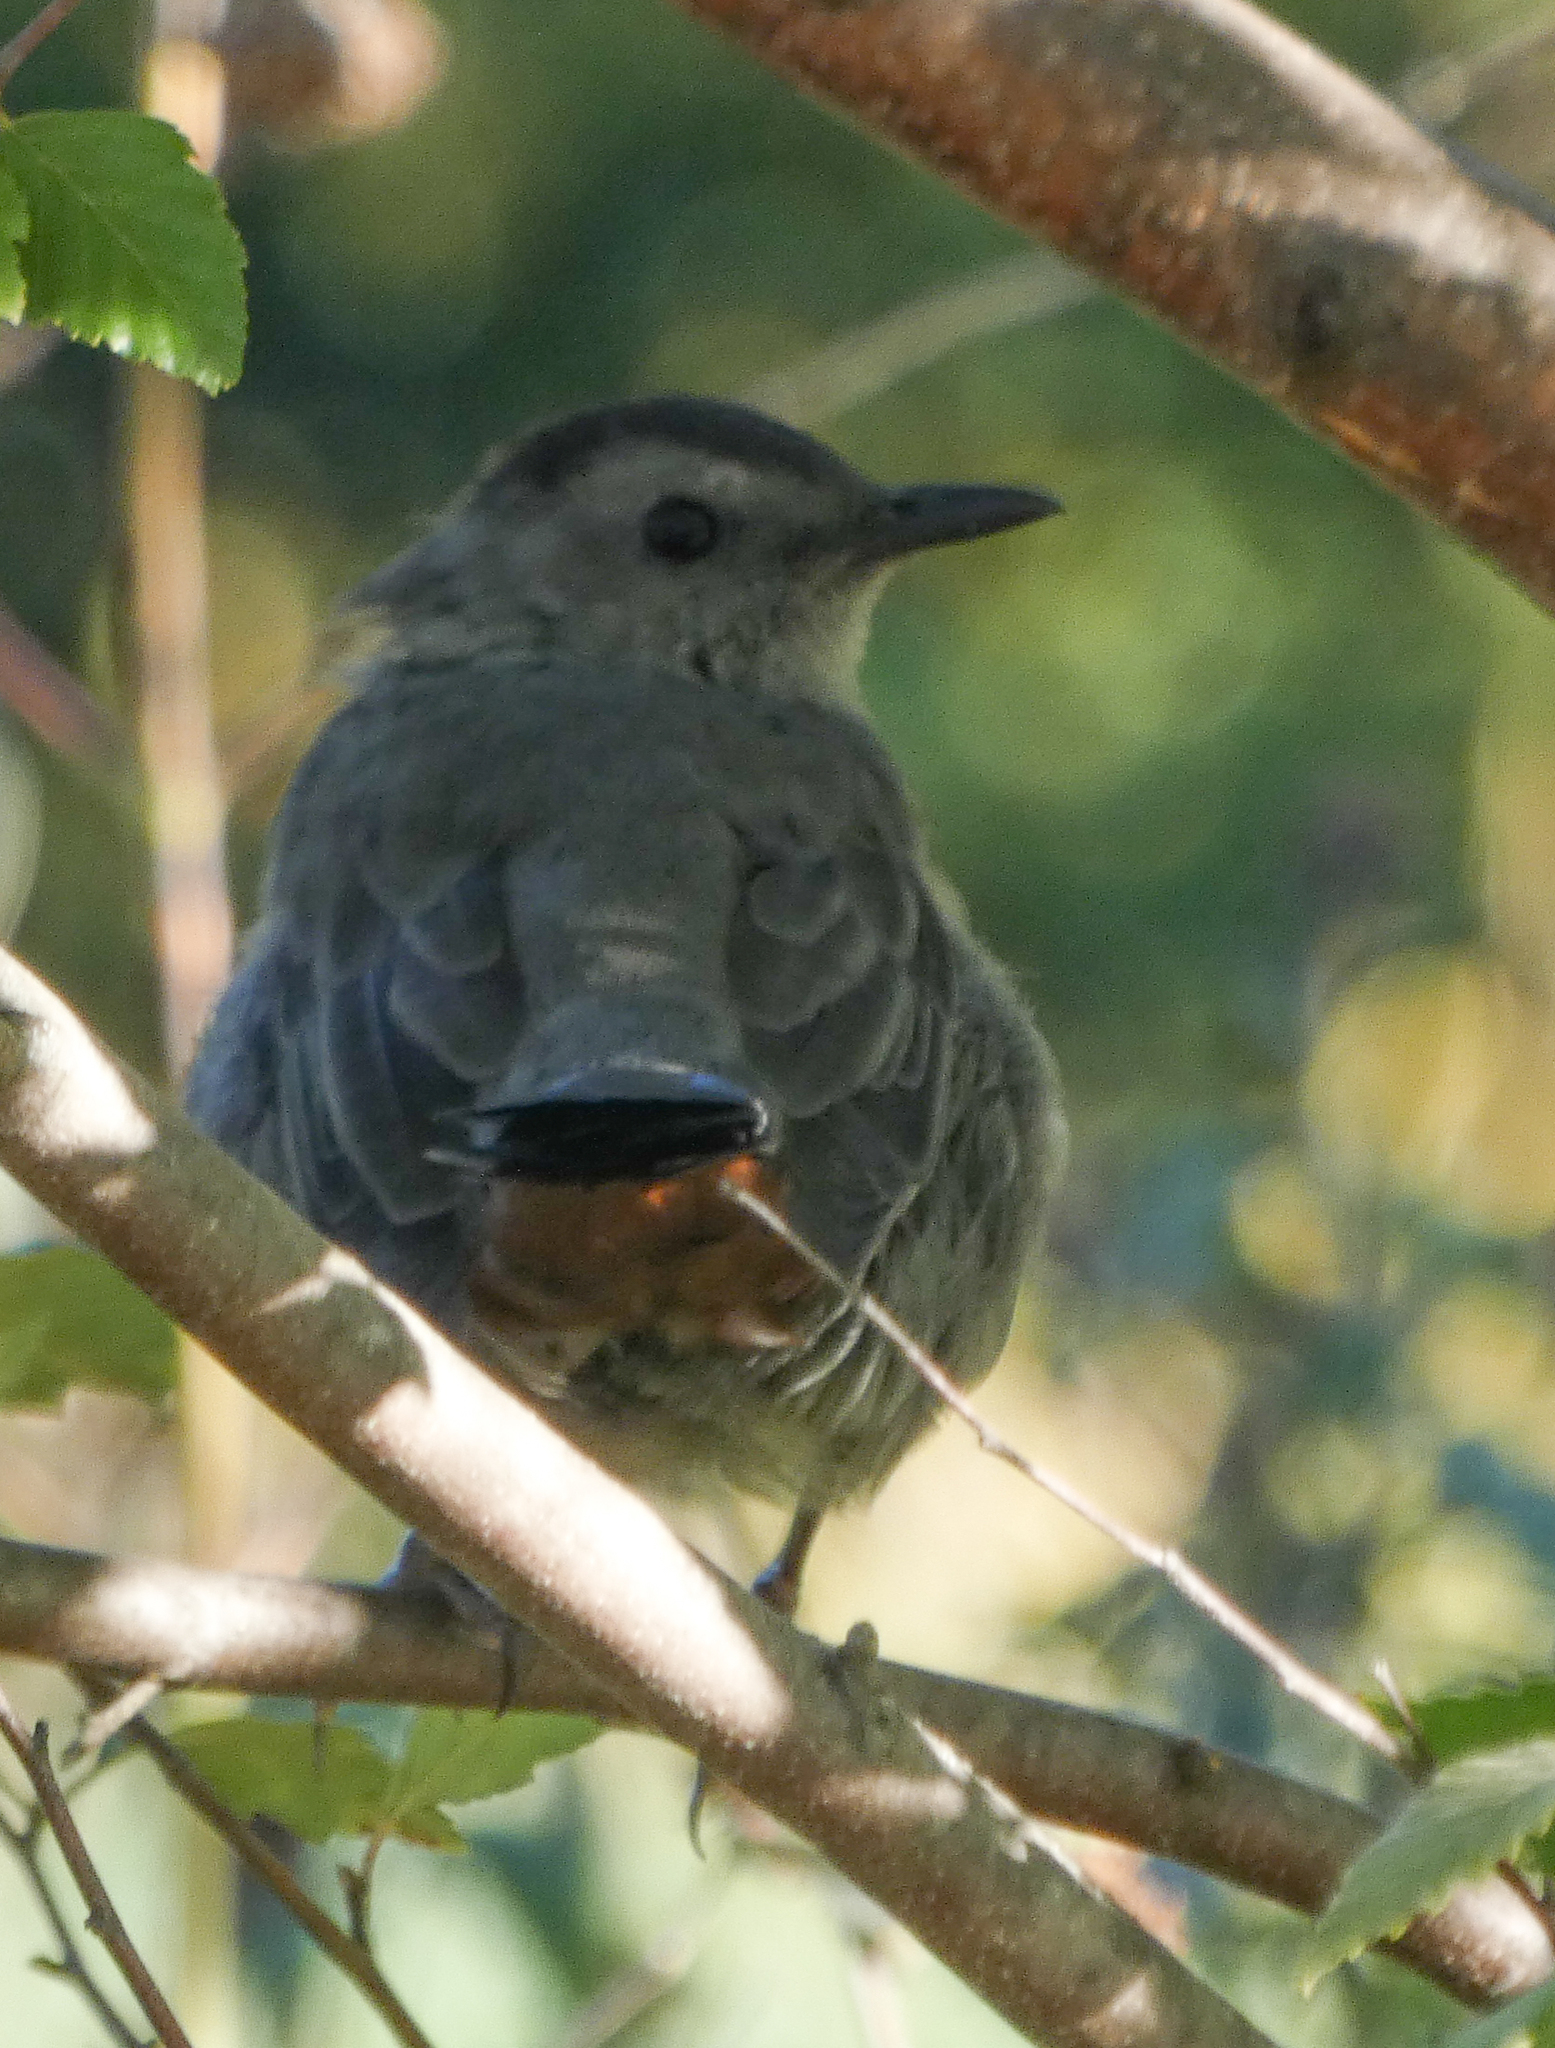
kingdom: Animalia
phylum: Chordata
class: Aves
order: Passeriformes
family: Mimidae
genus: Dumetella
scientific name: Dumetella carolinensis
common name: Gray catbird
